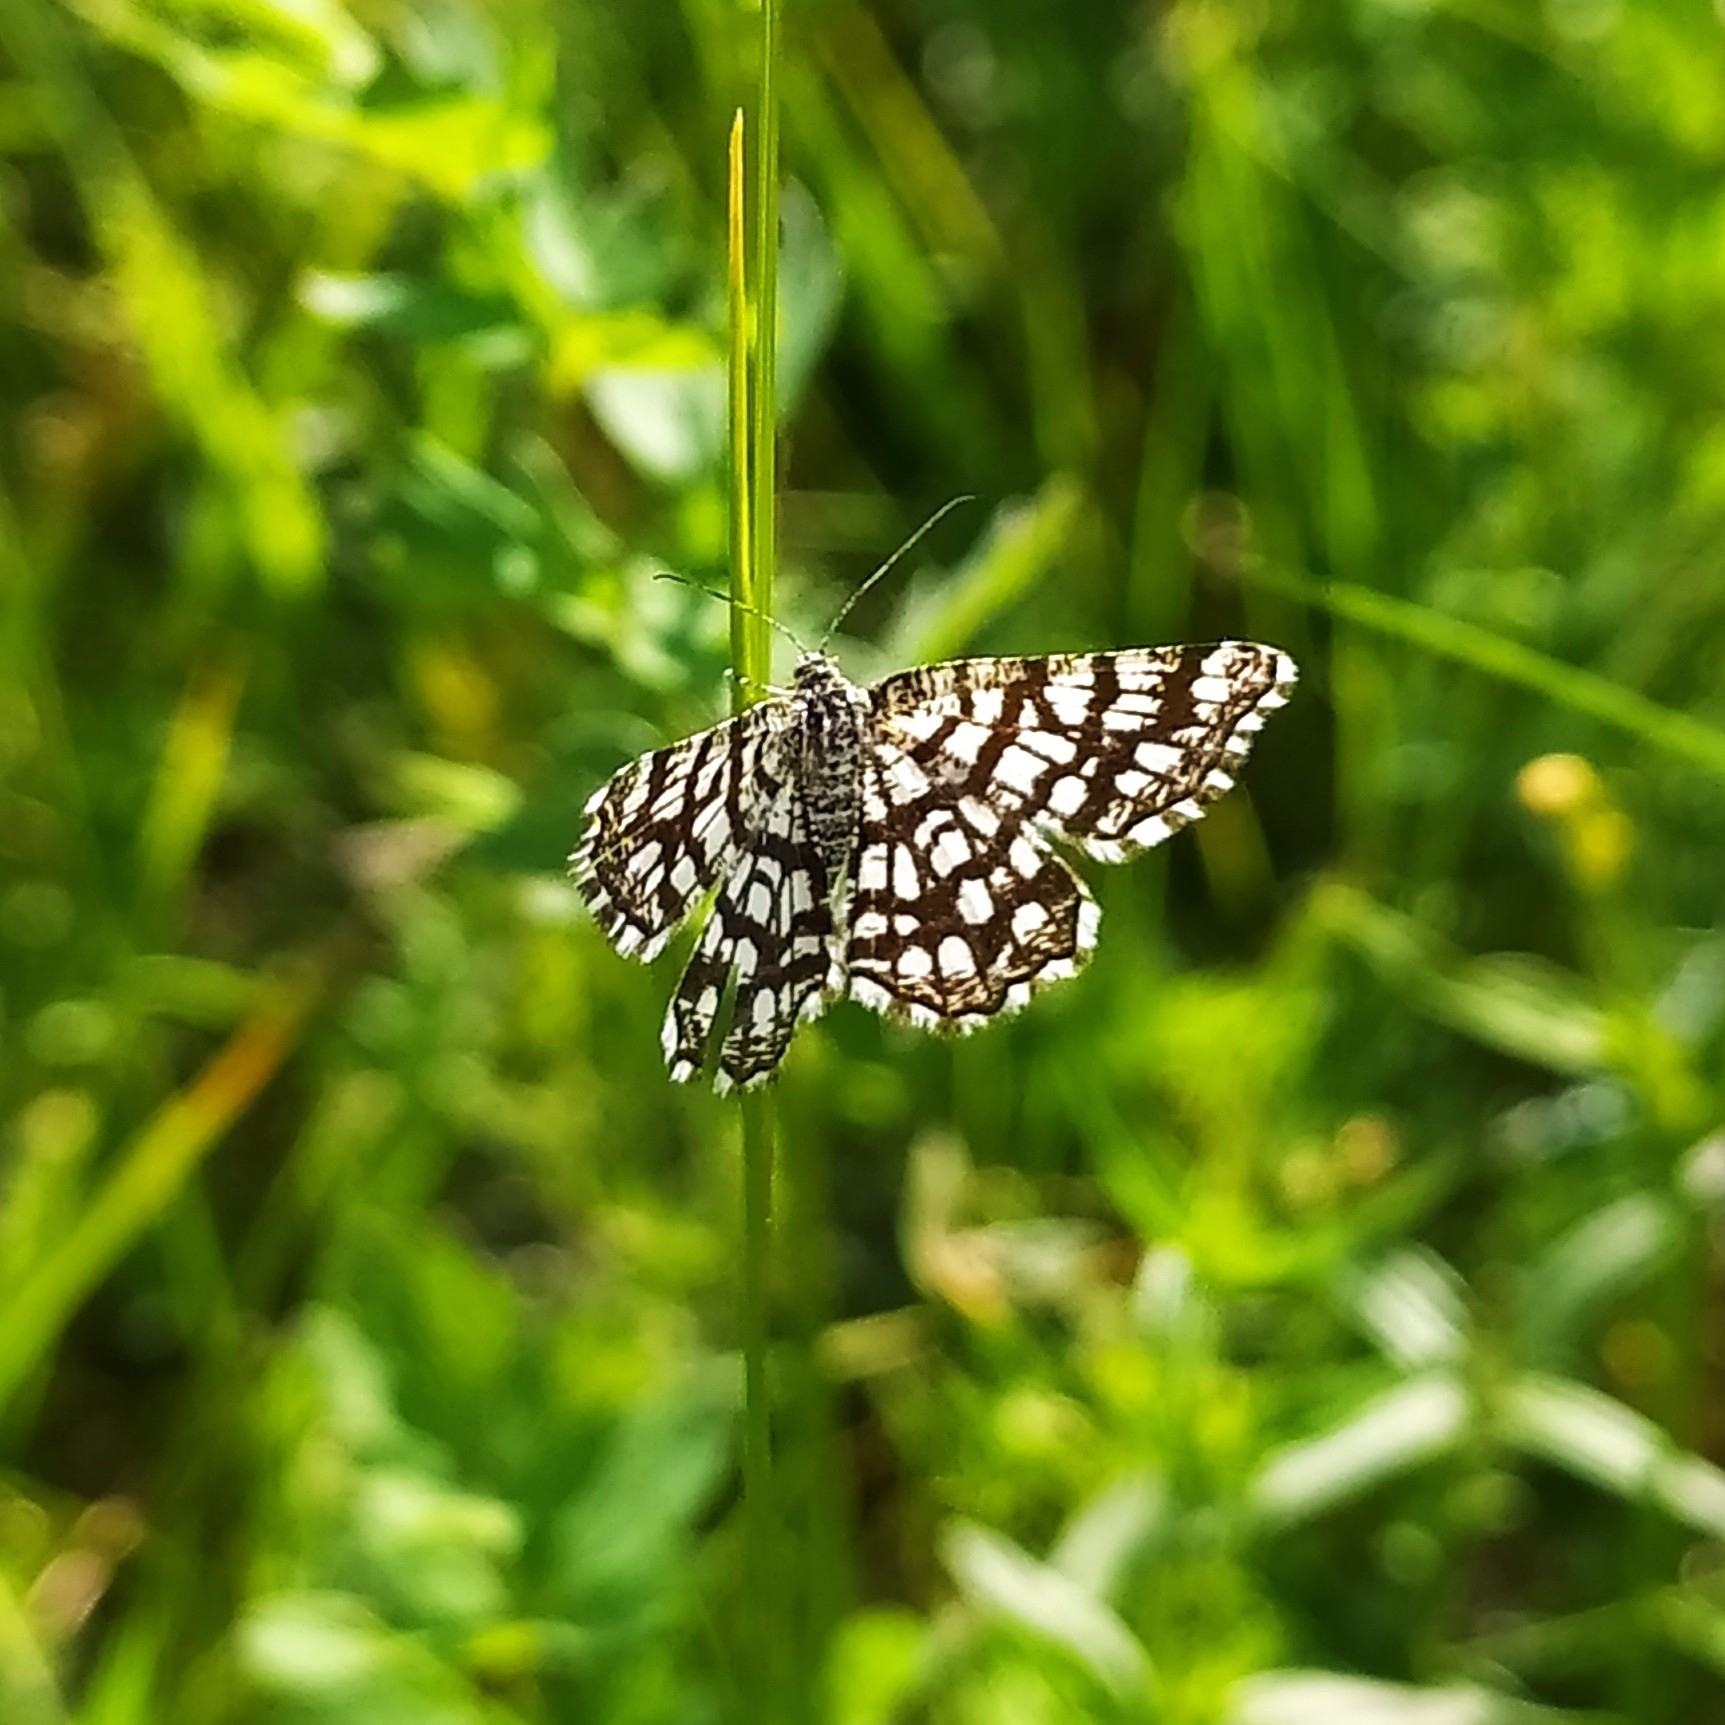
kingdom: Animalia
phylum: Arthropoda
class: Insecta
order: Lepidoptera
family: Geometridae
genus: Chiasmia
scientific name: Chiasmia clathrata
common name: Latticed heath
